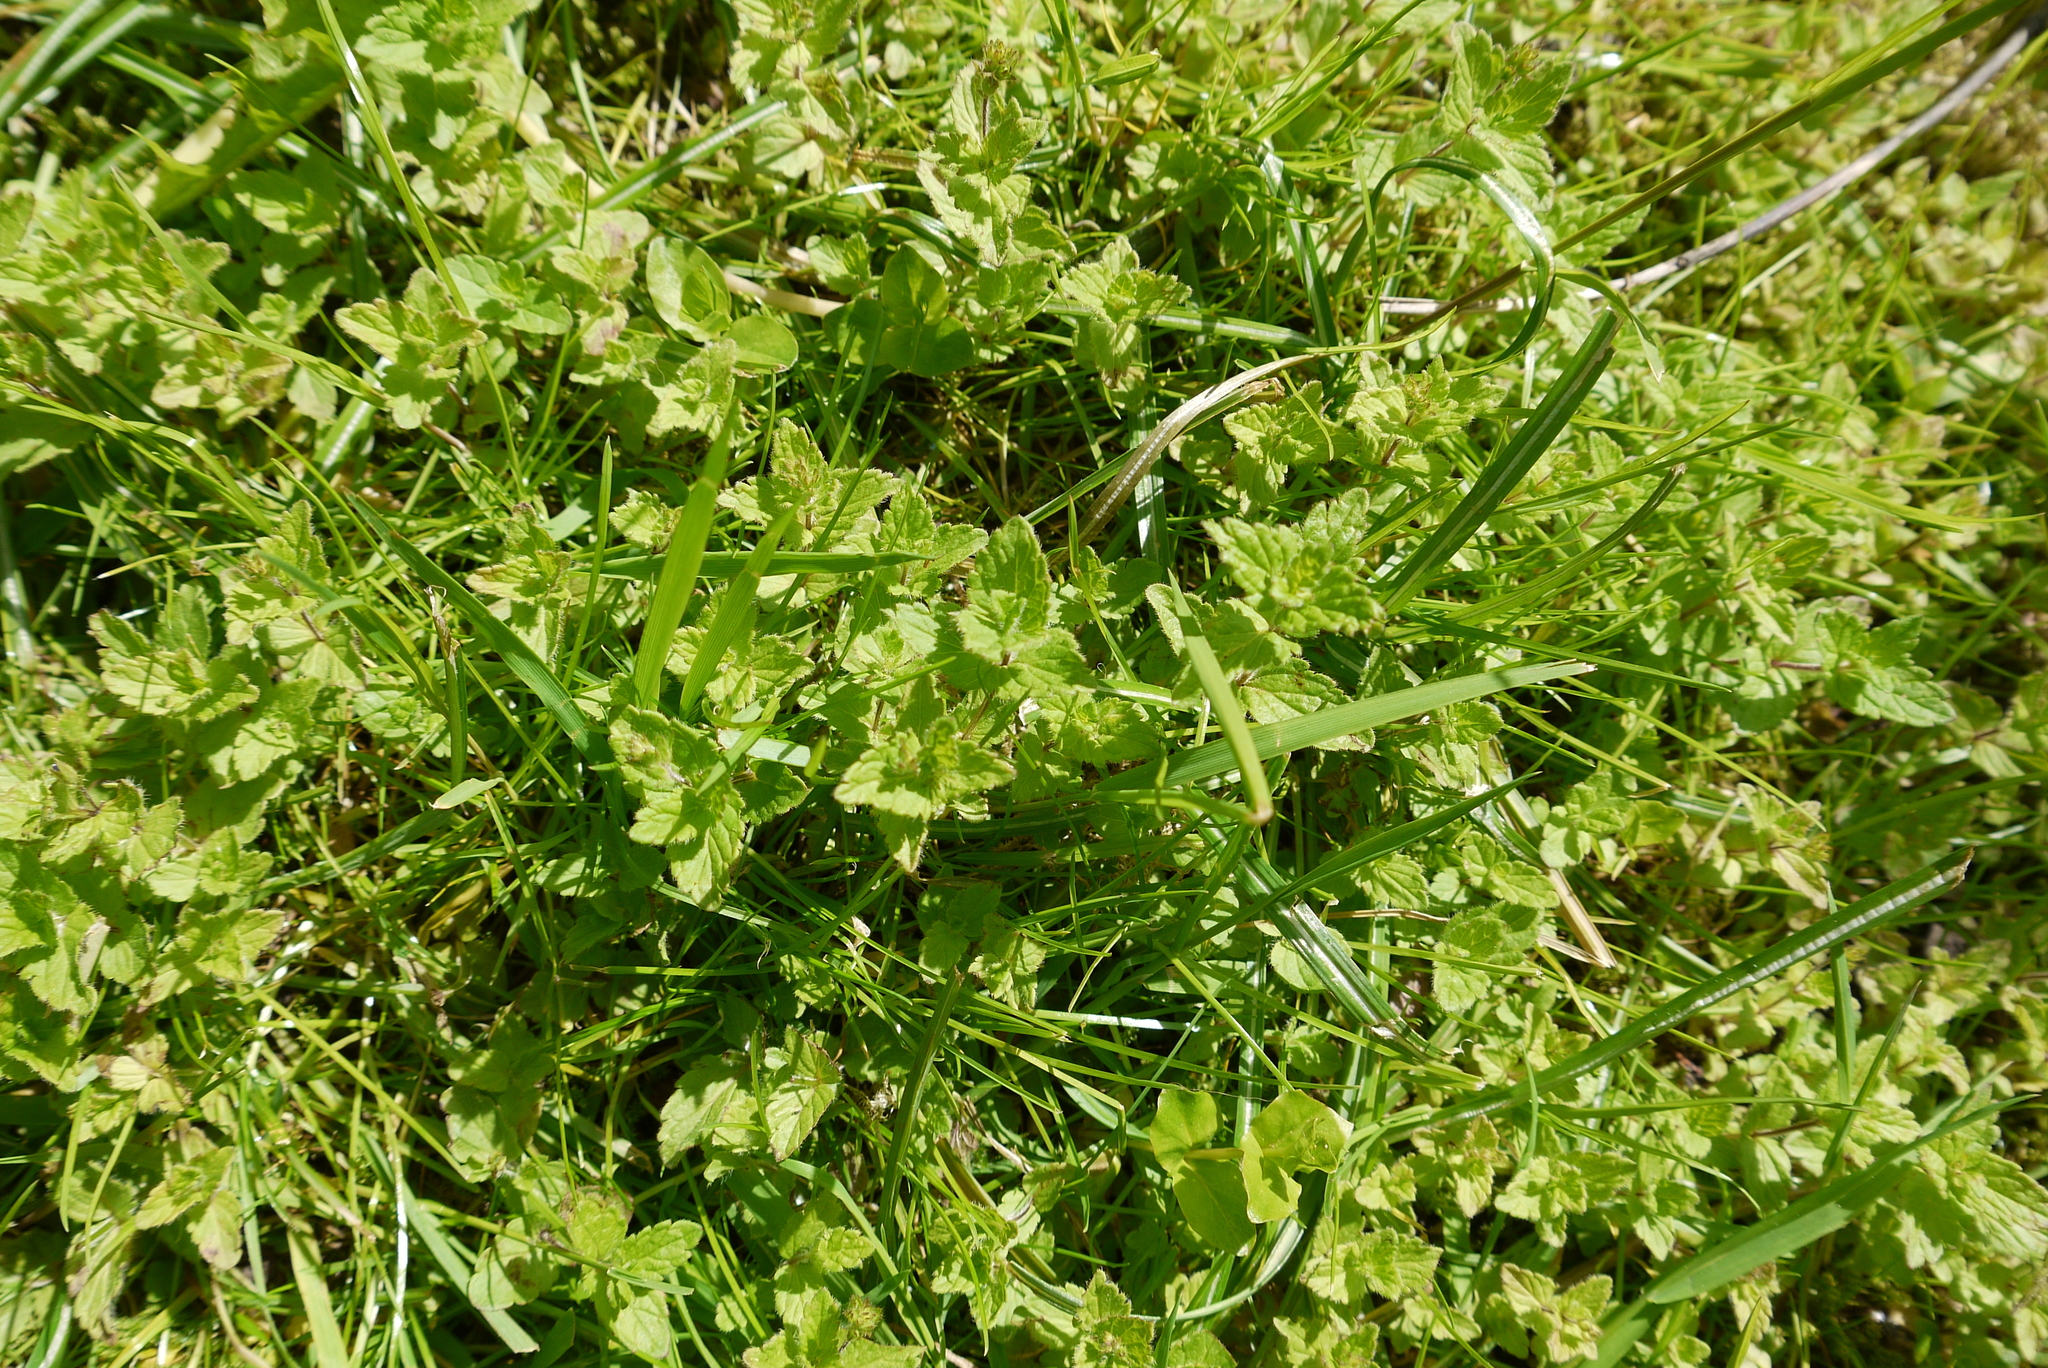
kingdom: Plantae
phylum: Tracheophyta
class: Magnoliopsida
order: Lamiales
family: Plantaginaceae
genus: Veronica
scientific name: Veronica chamaedrys
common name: Germander speedwell
